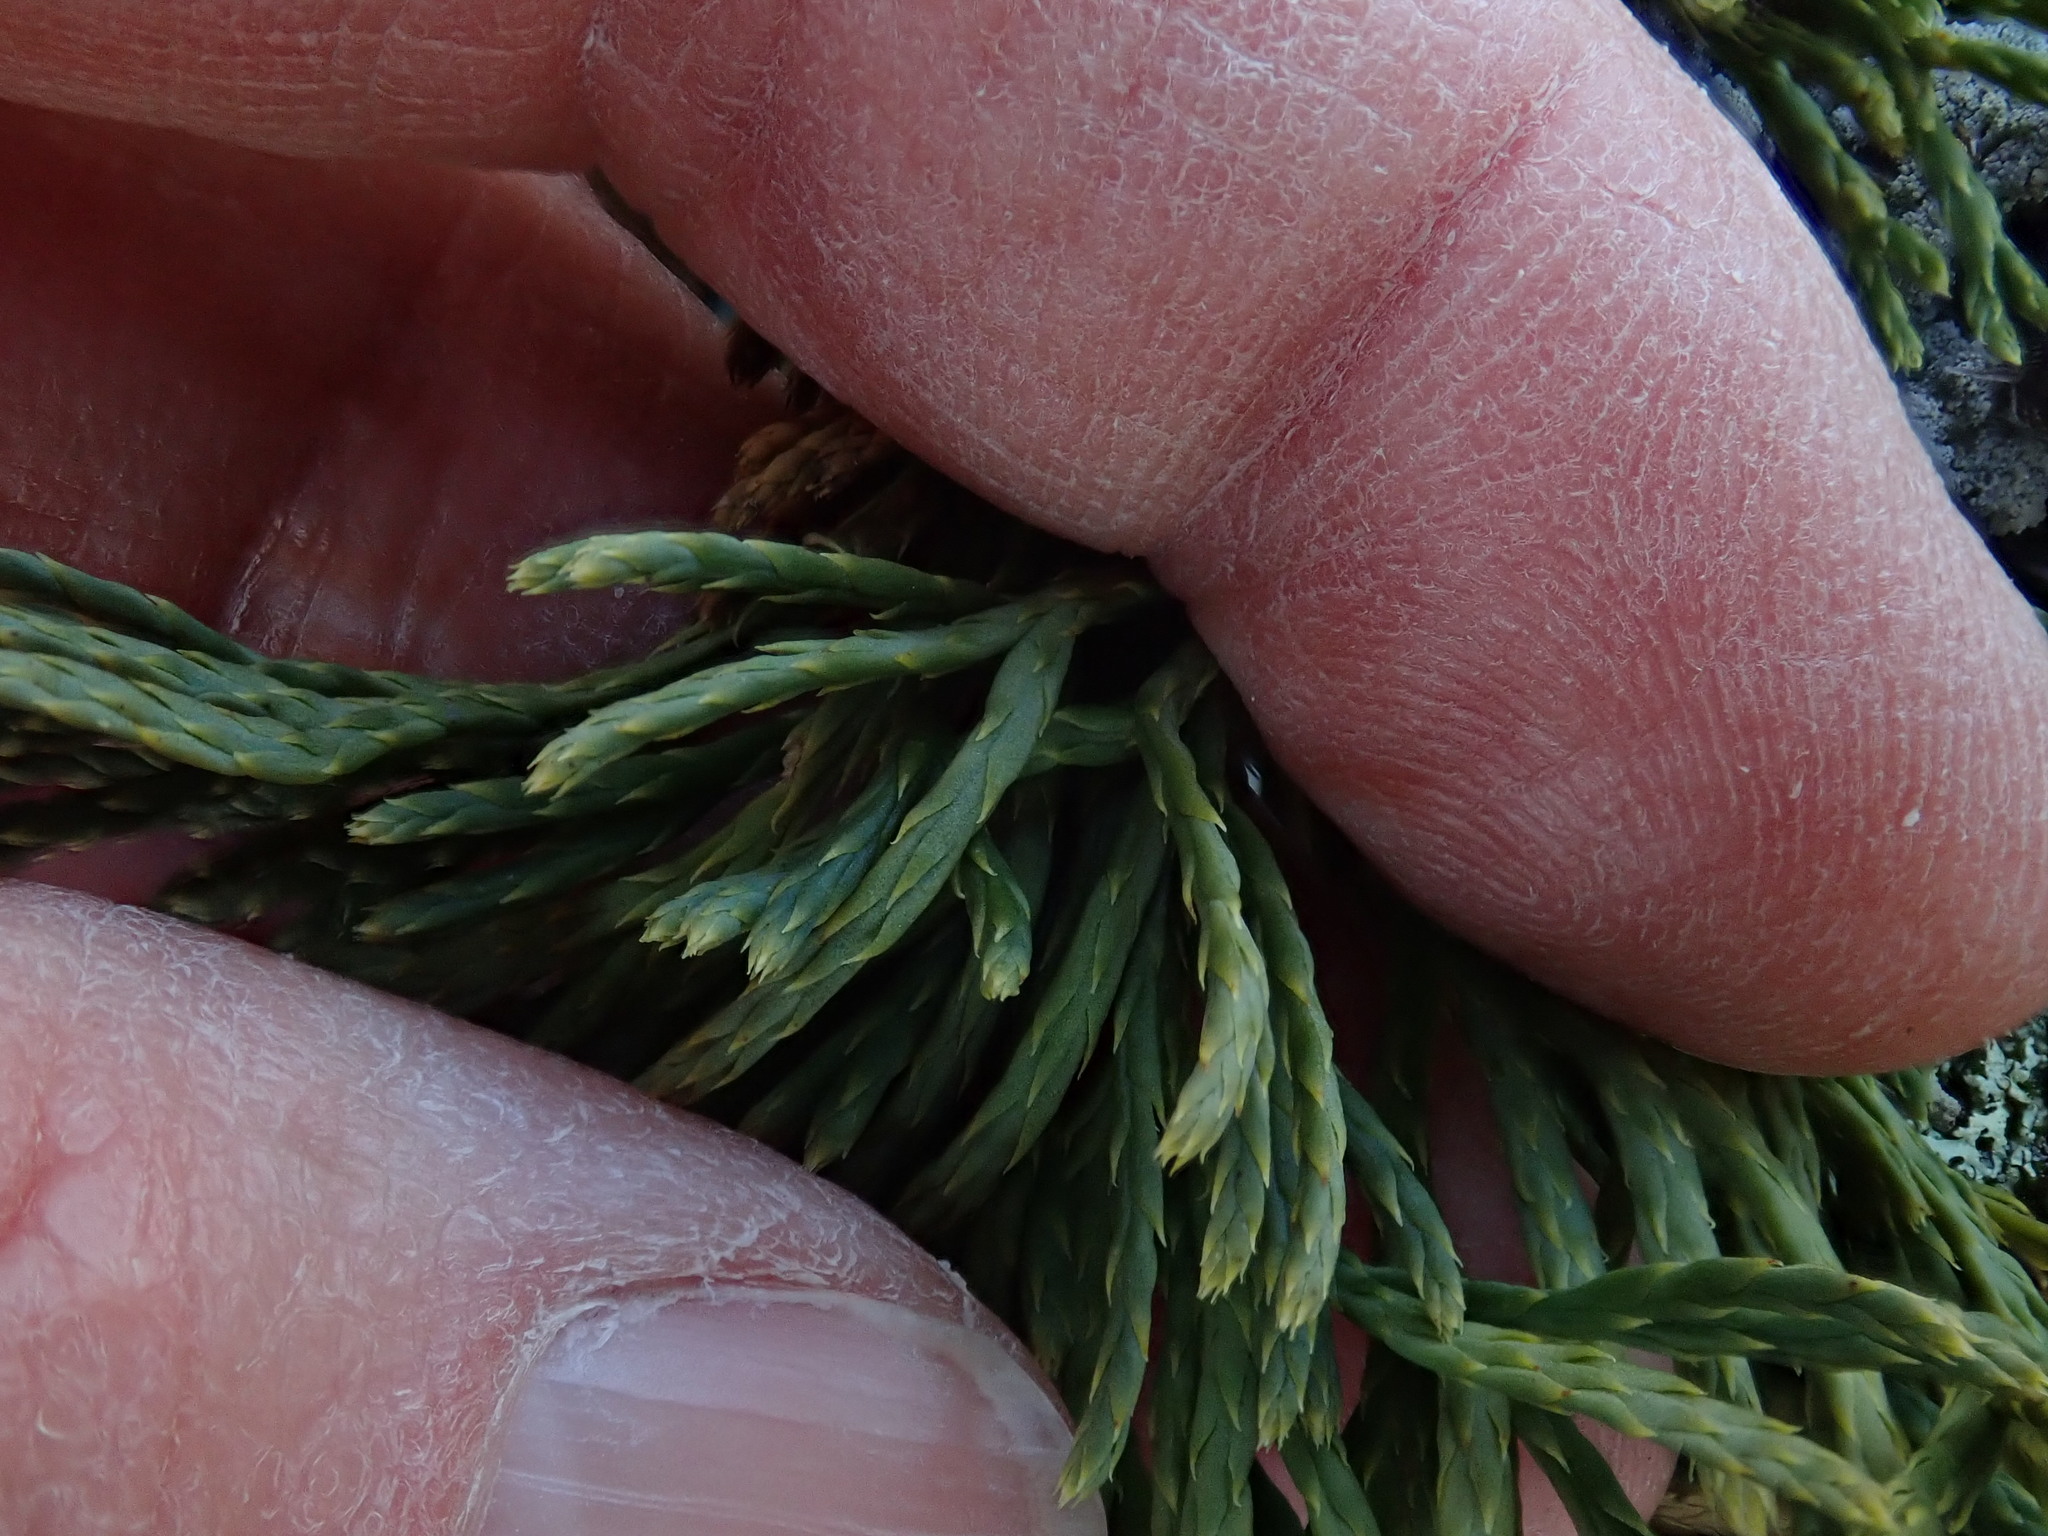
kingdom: Plantae
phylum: Tracheophyta
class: Lycopodiopsida
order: Lycopodiales
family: Lycopodiaceae
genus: Diphasiastrum
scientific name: Diphasiastrum tristachyum
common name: Blue ground-cedar
